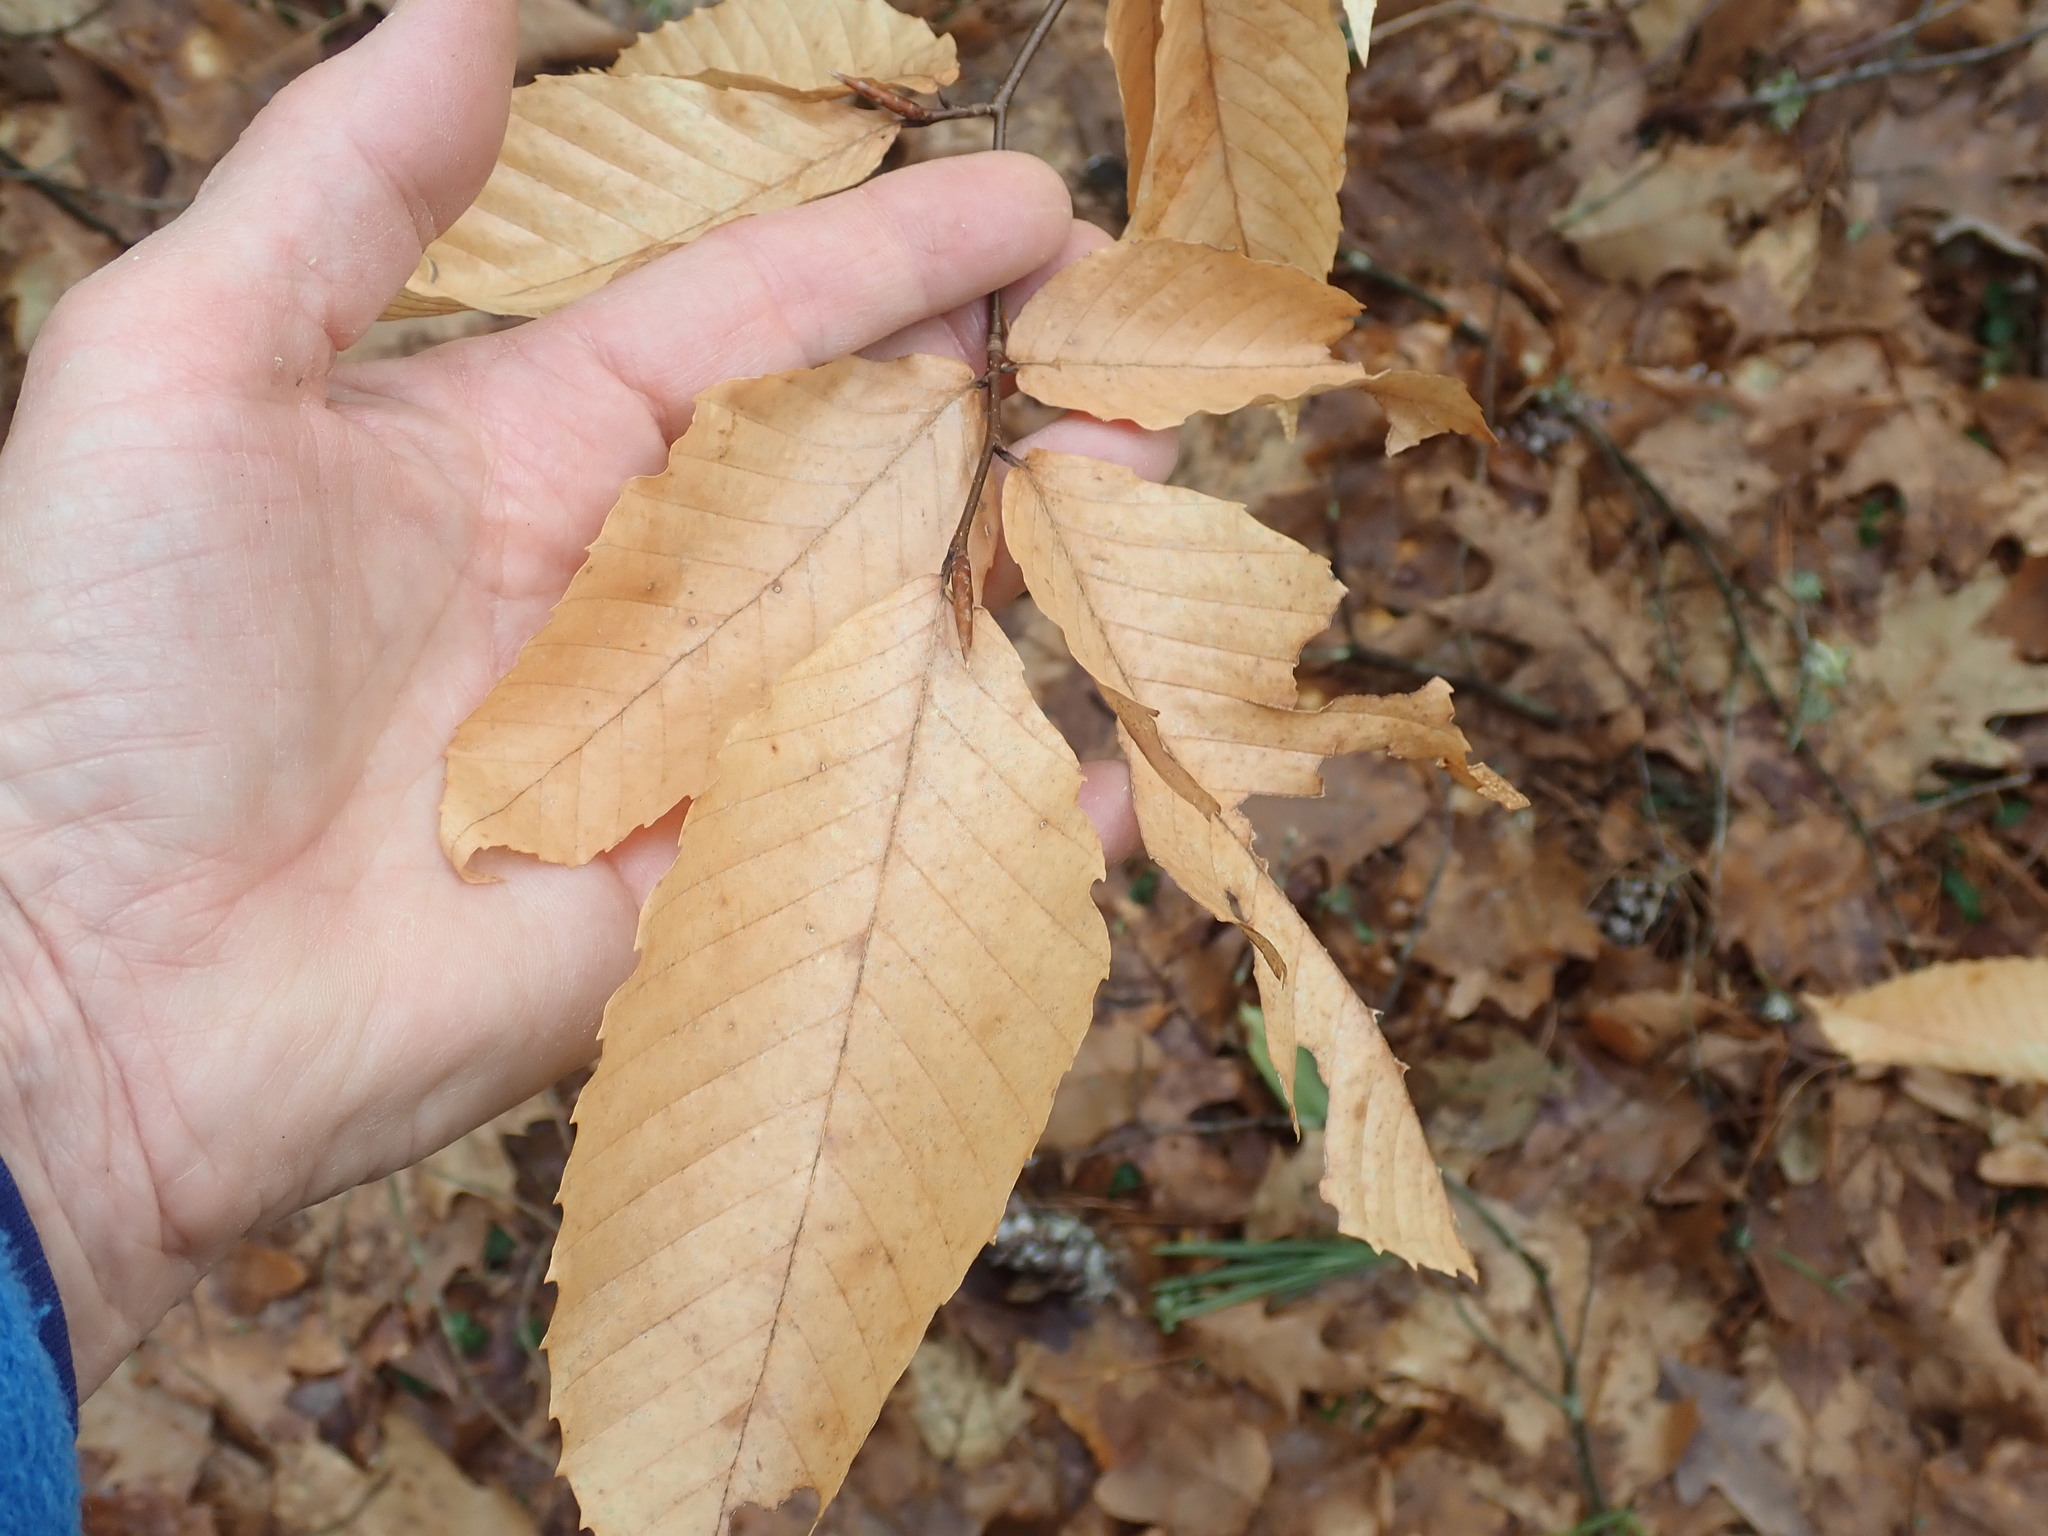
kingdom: Plantae
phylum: Tracheophyta
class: Magnoliopsida
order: Fagales
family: Fagaceae
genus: Fagus
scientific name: Fagus grandifolia
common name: American beech
